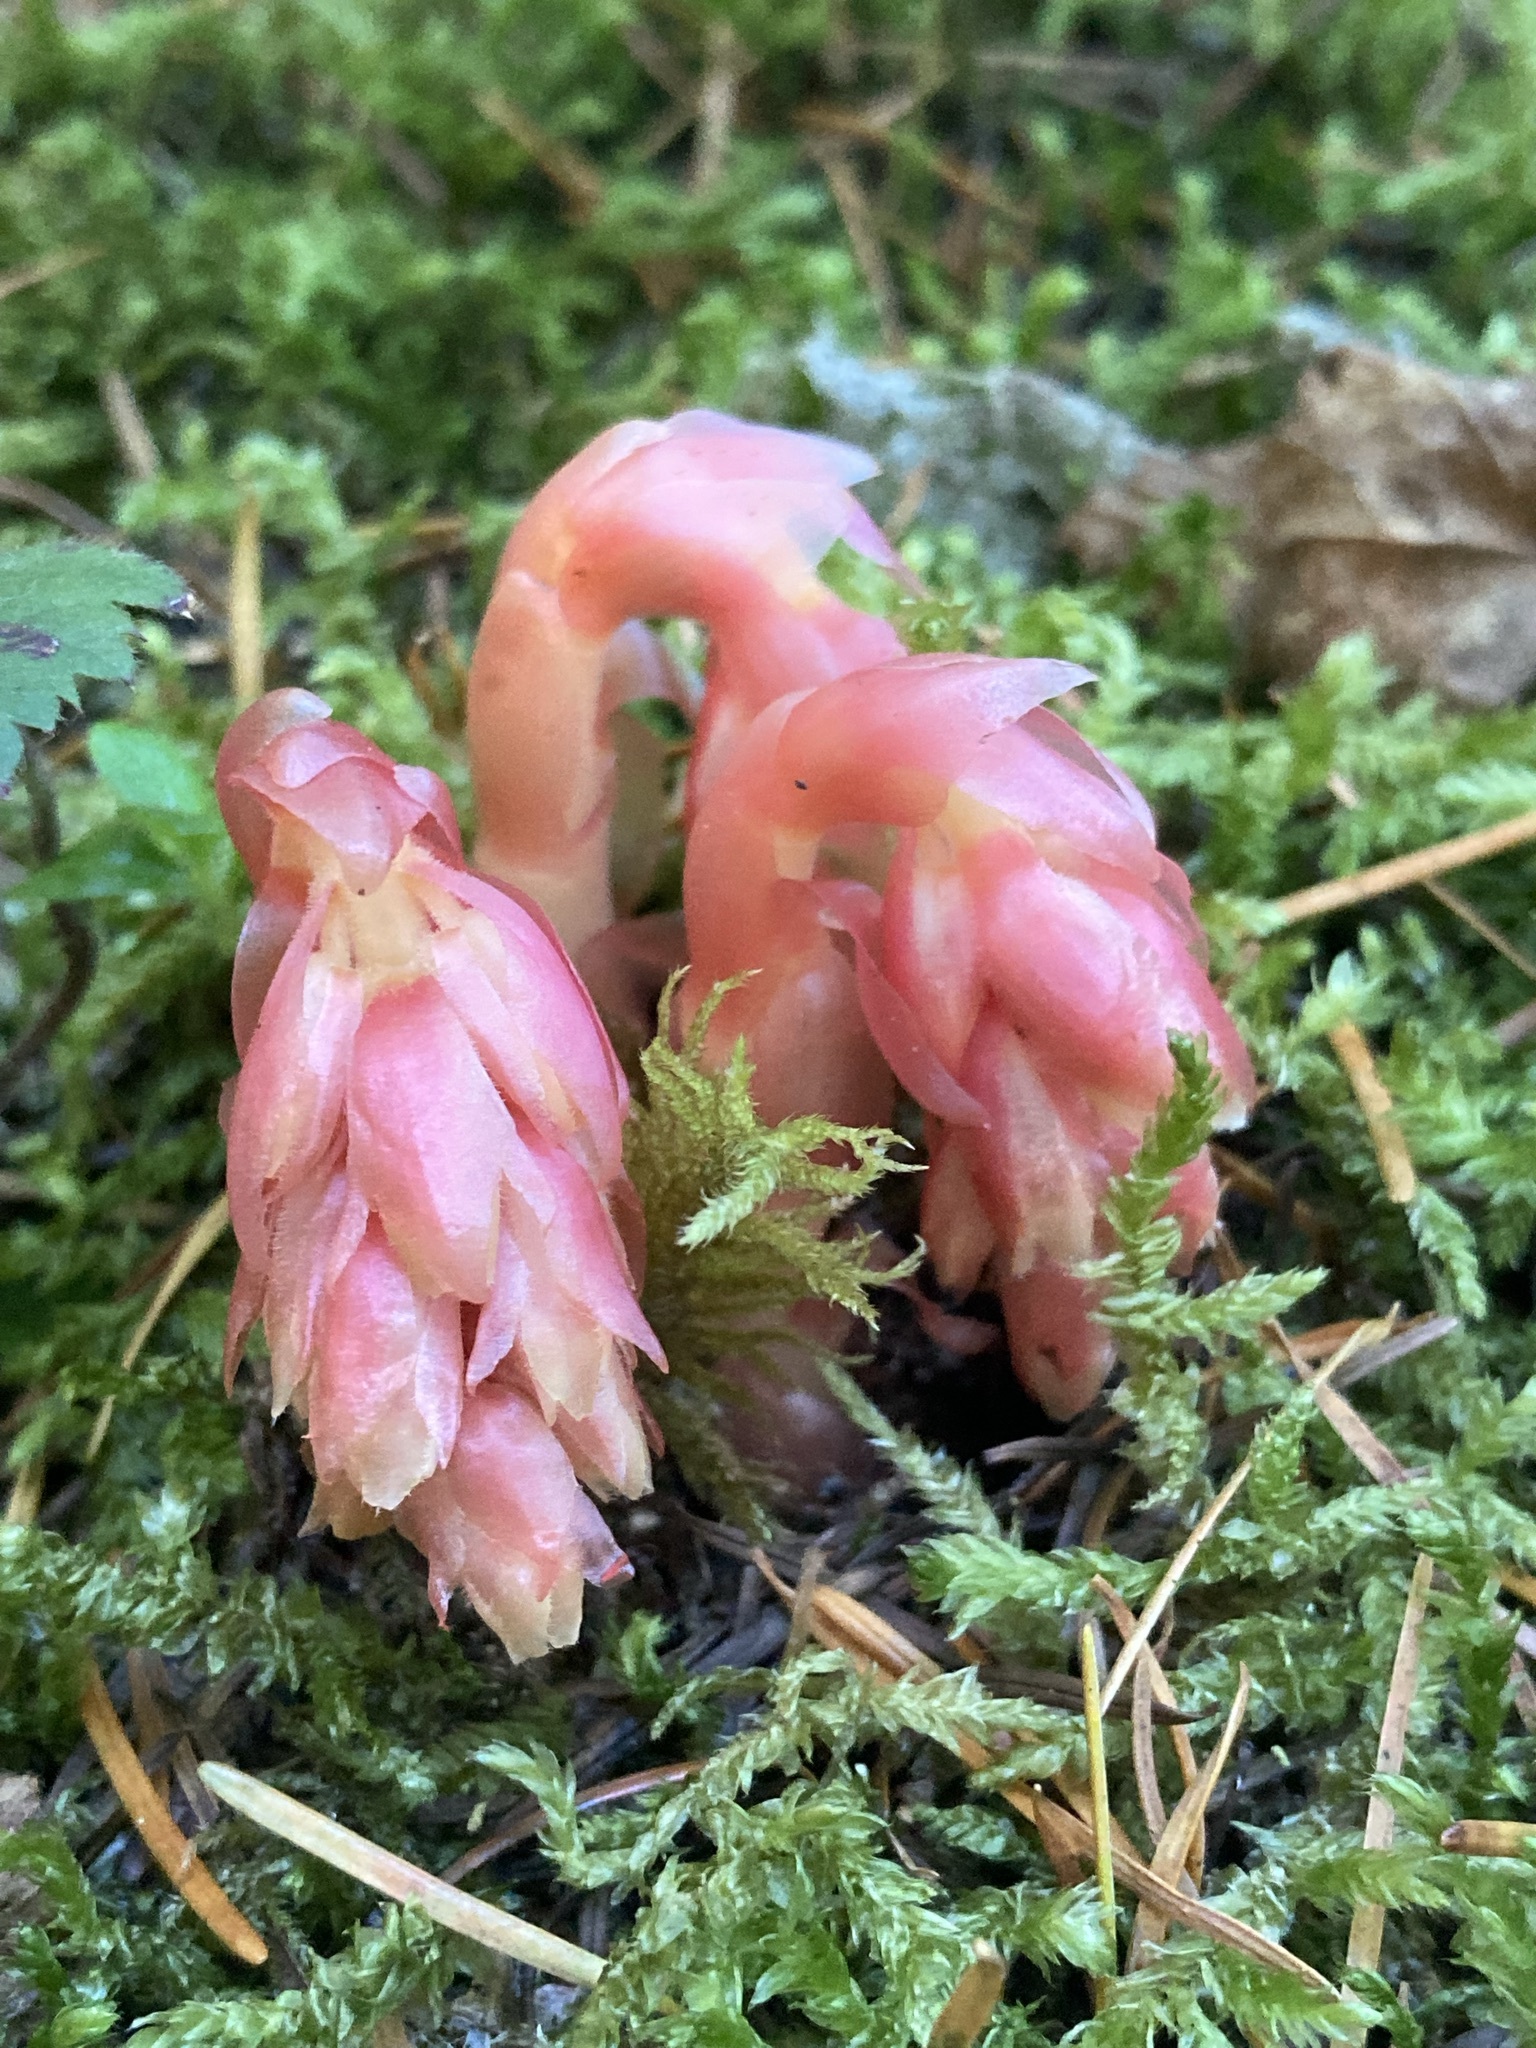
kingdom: Plantae
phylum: Tracheophyta
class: Magnoliopsida
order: Ericales
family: Ericaceae
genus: Hypopitys
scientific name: Hypopitys monotropa
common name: Yellow bird's-nest
